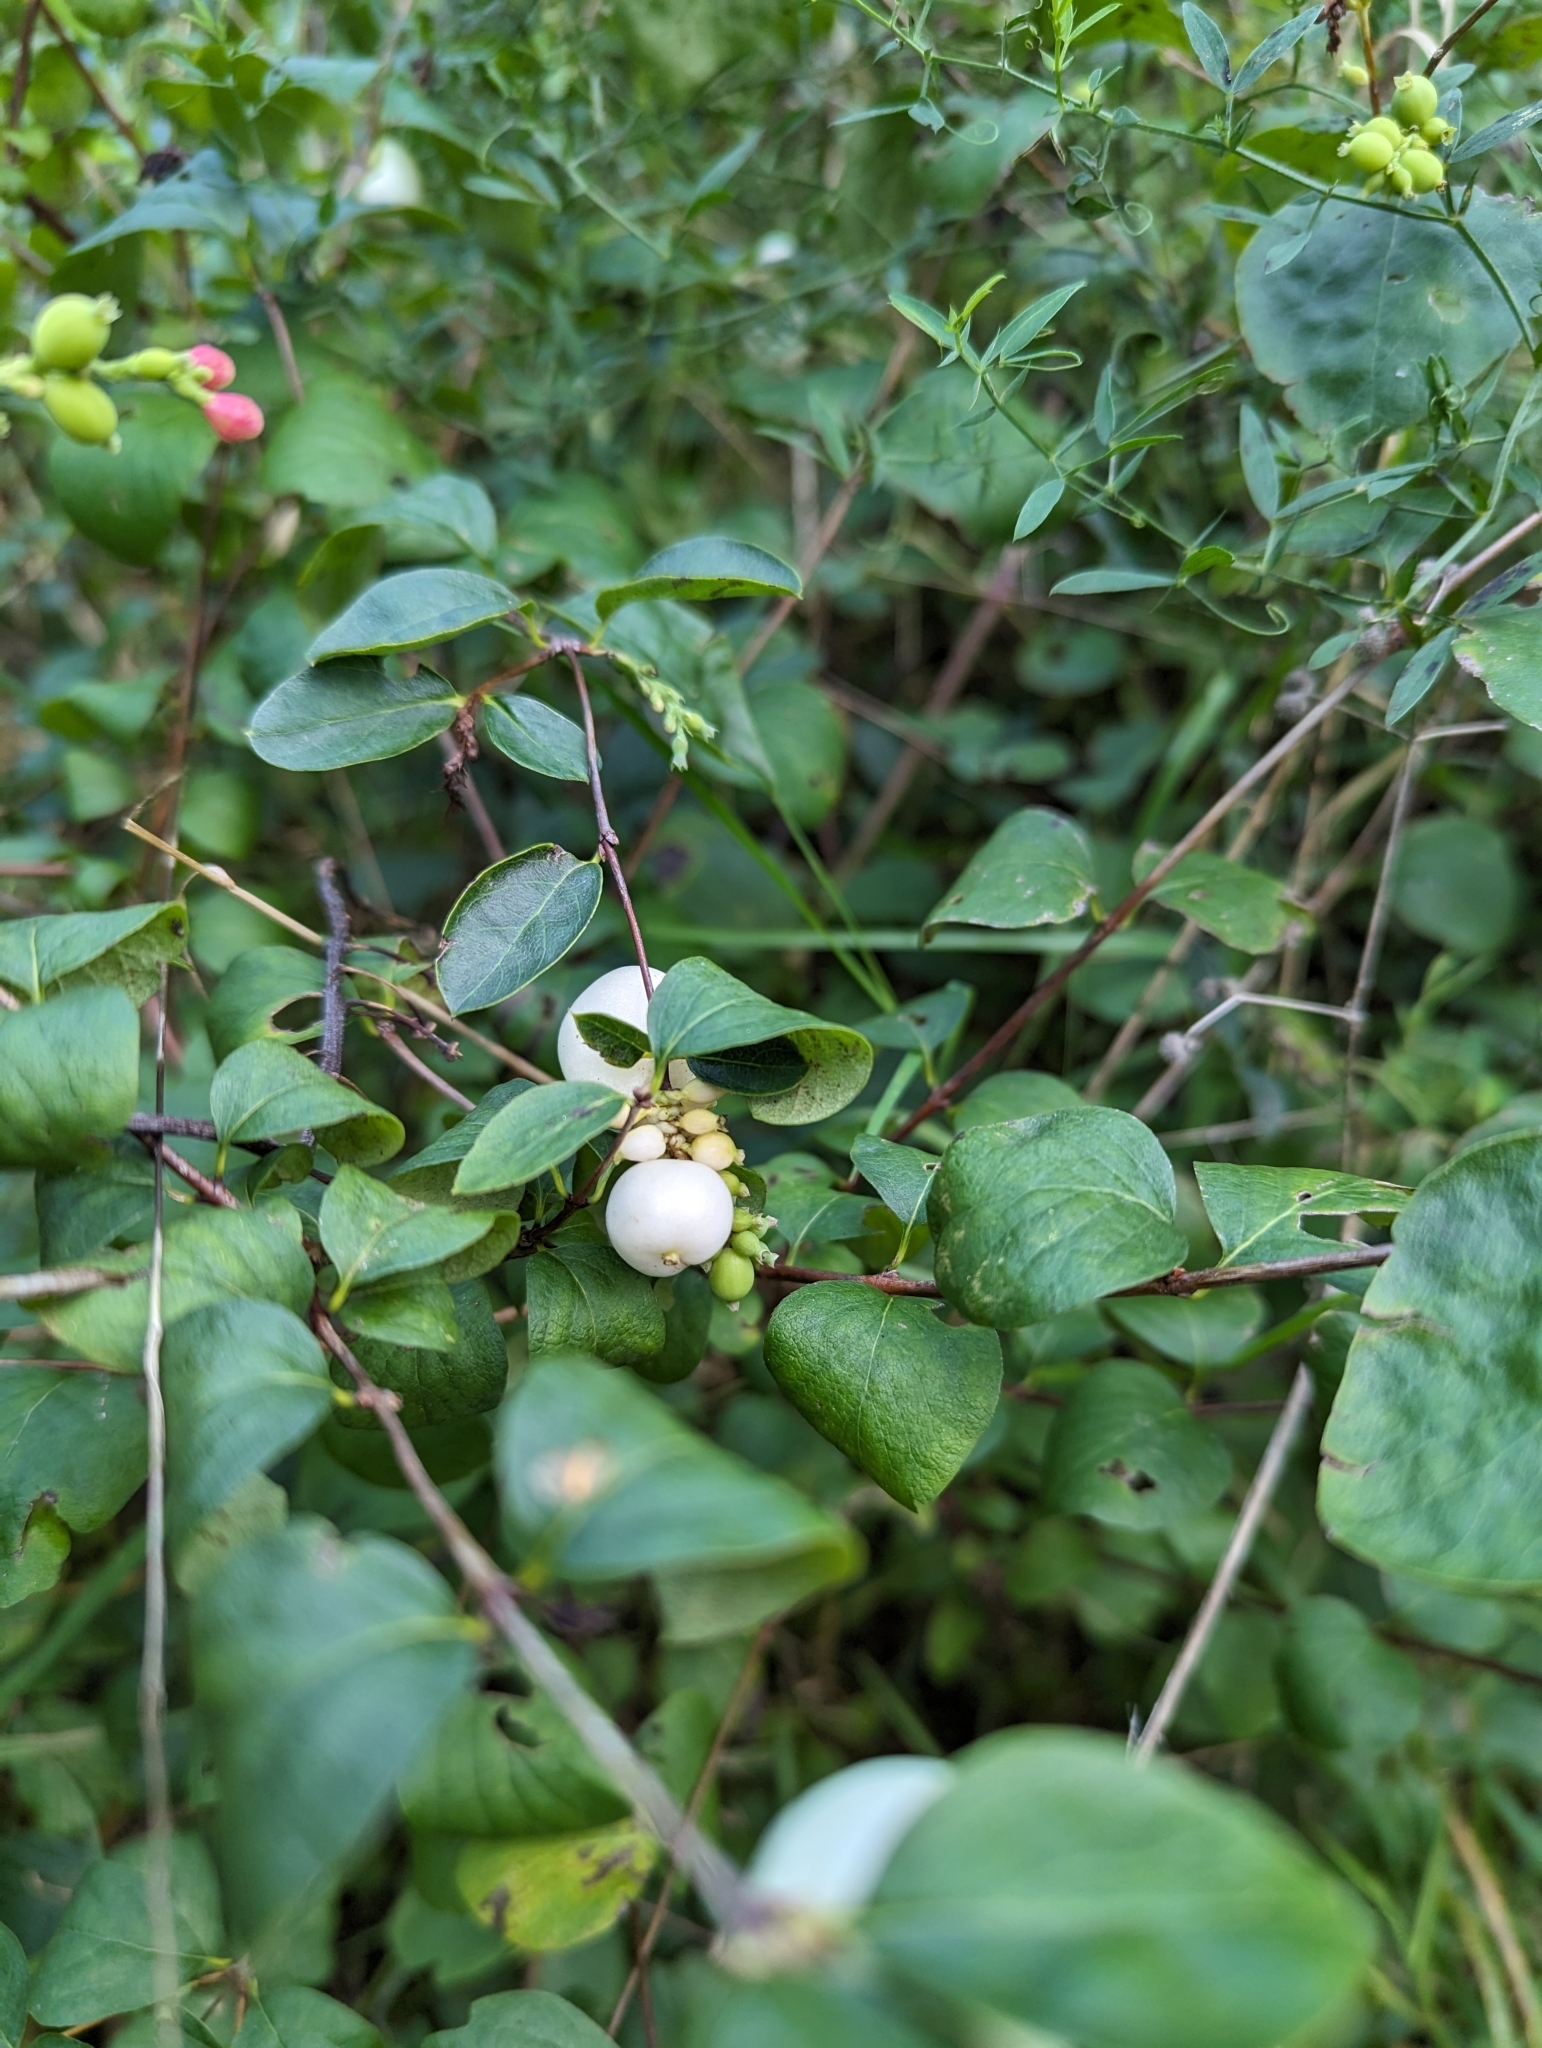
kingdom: Plantae
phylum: Tracheophyta
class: Magnoliopsida
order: Dipsacales
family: Caprifoliaceae
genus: Symphoricarpos
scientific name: Symphoricarpos albus
